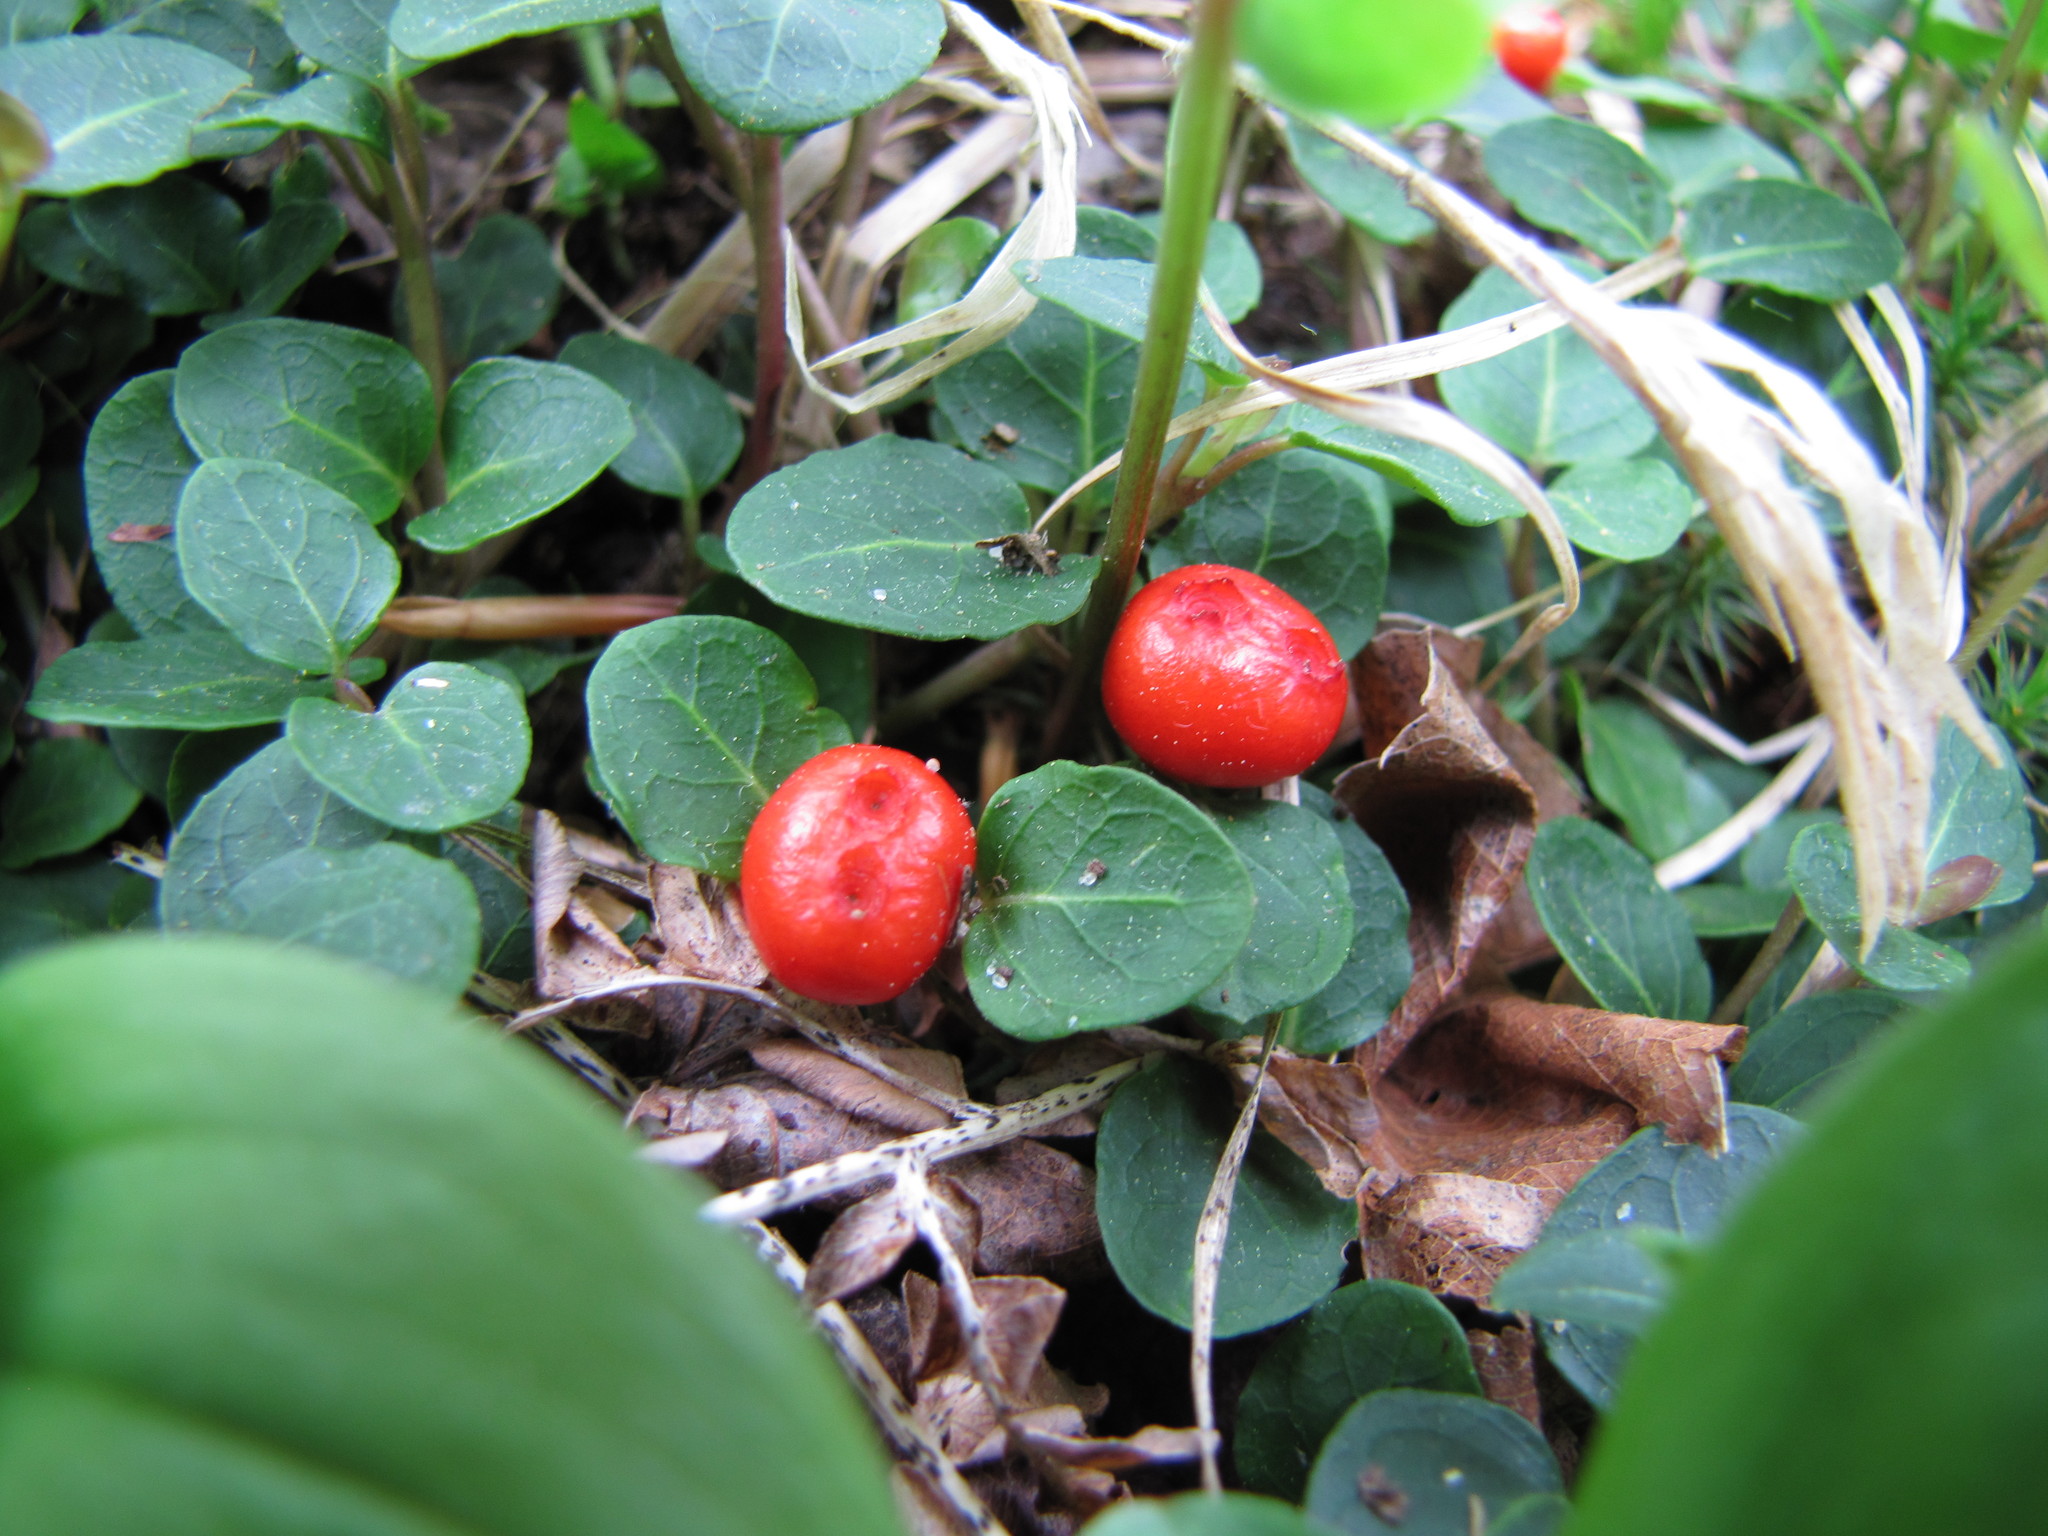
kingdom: Plantae
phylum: Tracheophyta
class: Magnoliopsida
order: Gentianales
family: Rubiaceae
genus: Mitchella
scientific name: Mitchella repens
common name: Partridge-berry
